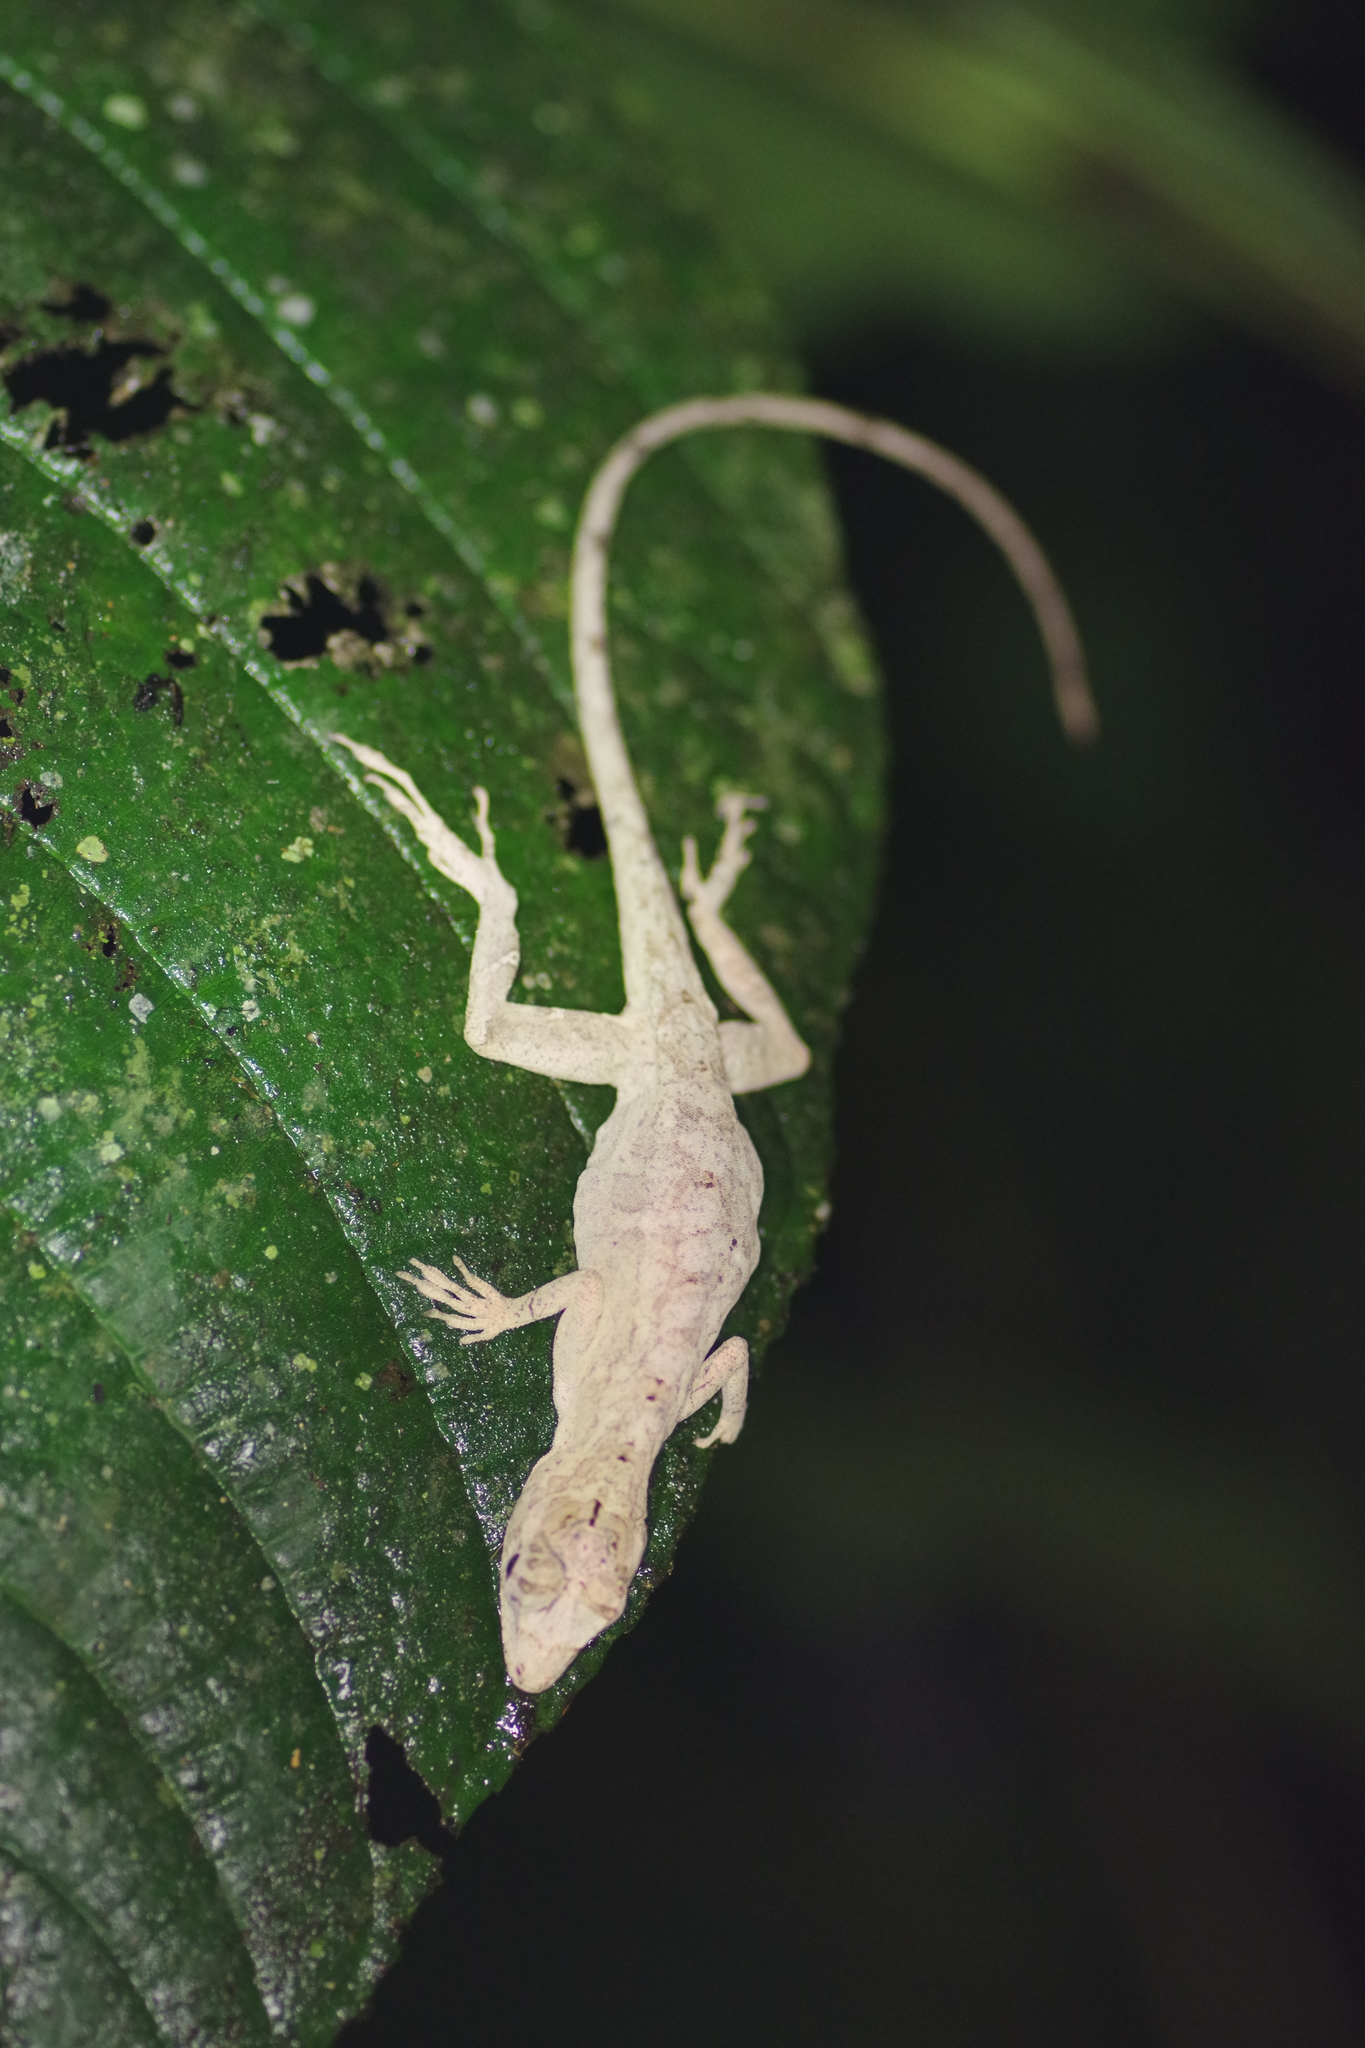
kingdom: Animalia
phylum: Chordata
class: Squamata
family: Dactyloidae
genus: Anolis
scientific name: Anolis lemurinus
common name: Ghost anole
